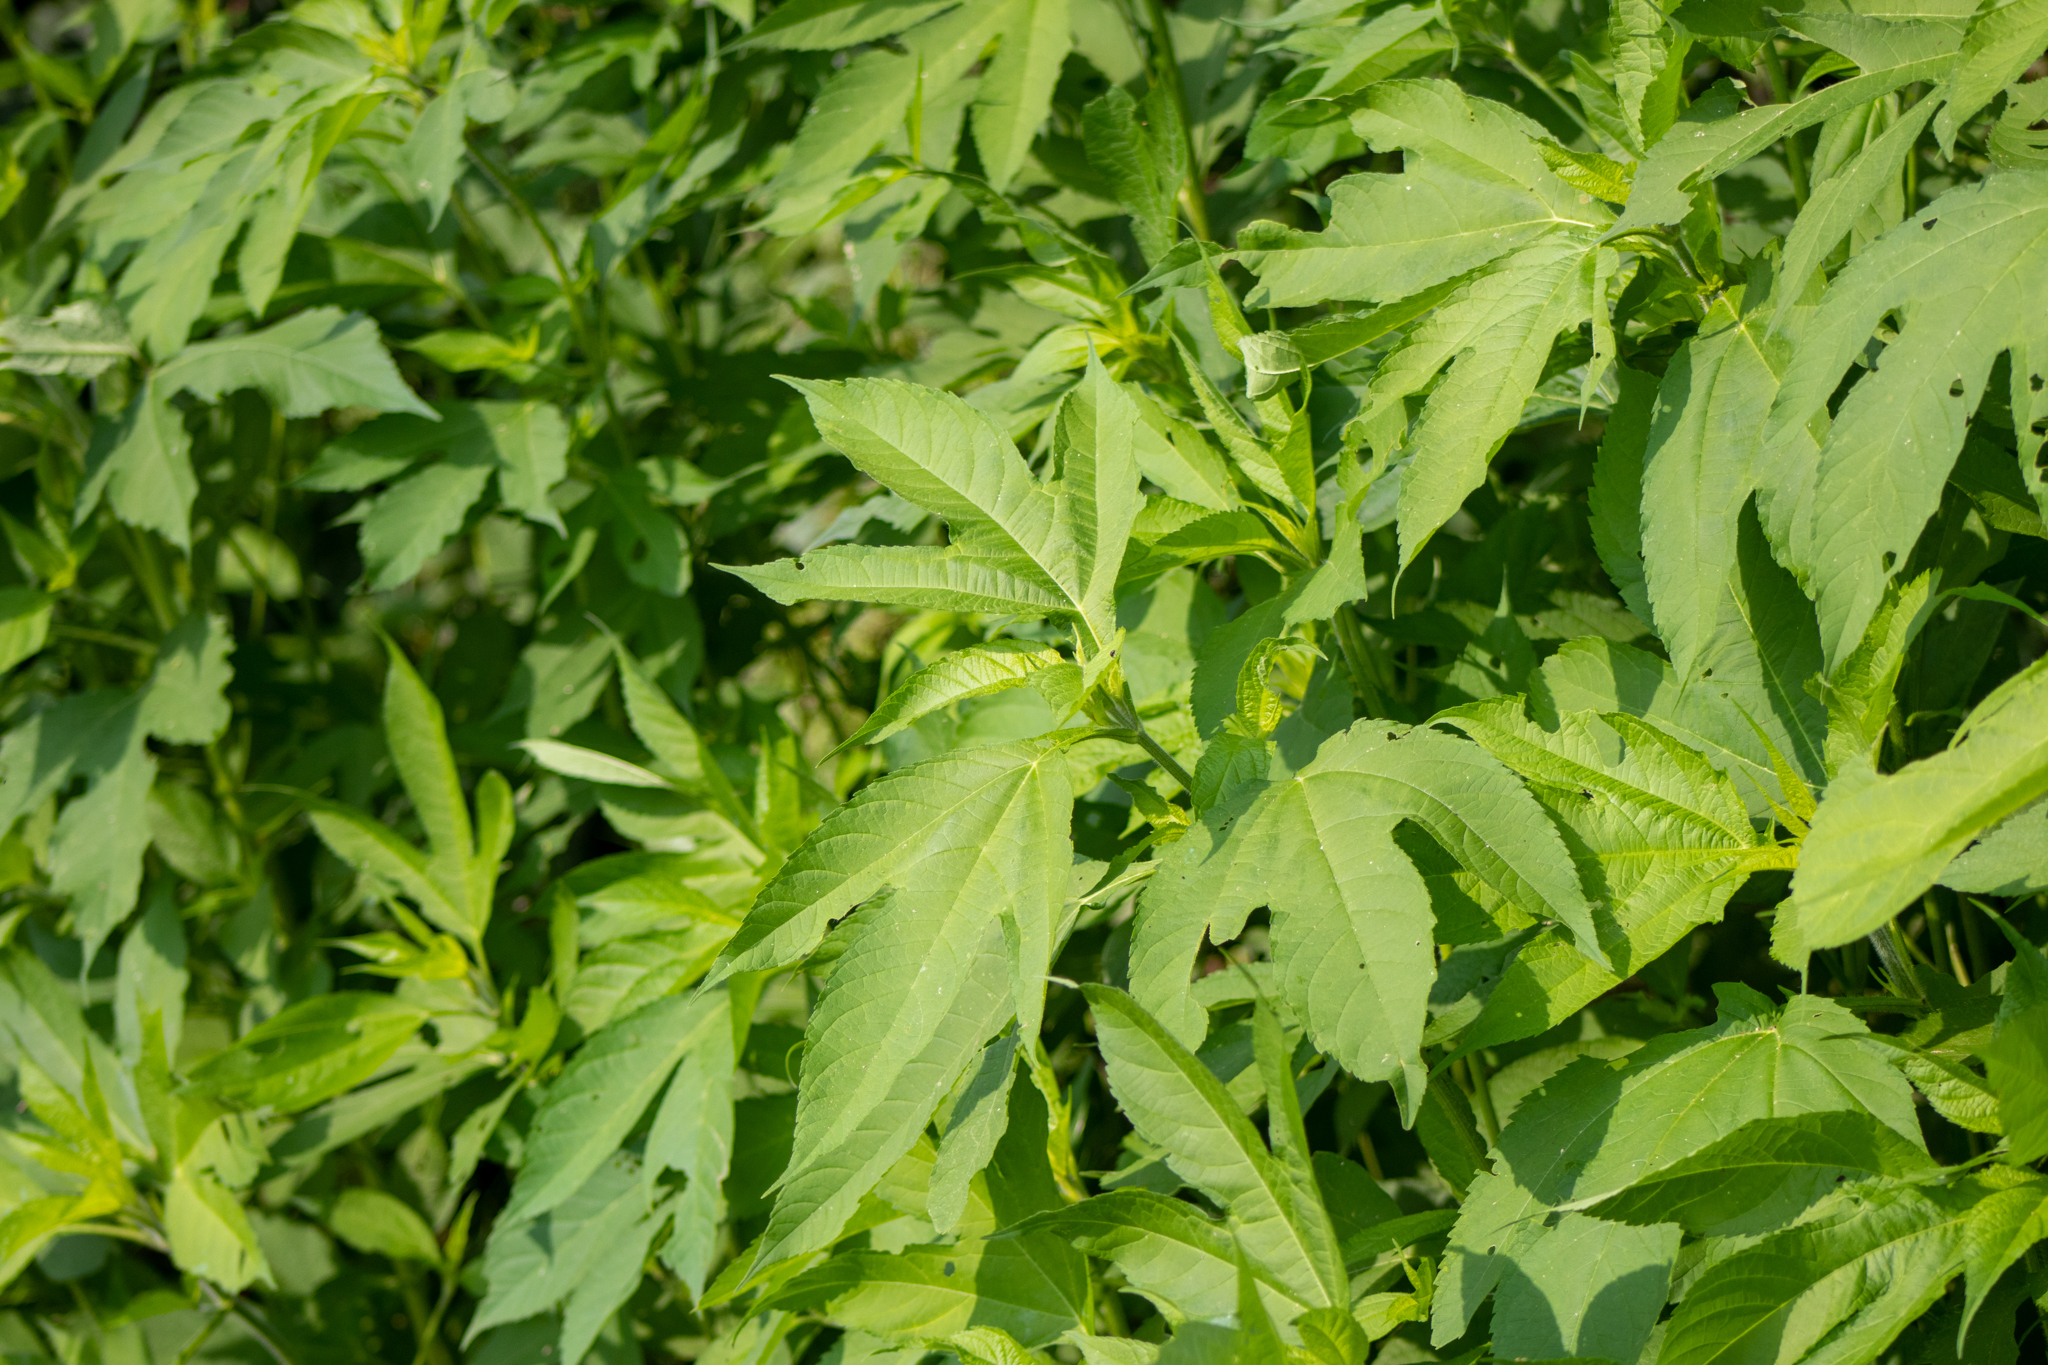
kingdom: Plantae
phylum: Tracheophyta
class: Magnoliopsida
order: Asterales
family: Asteraceae
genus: Ambrosia
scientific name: Ambrosia trifida
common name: Giant ragweed
